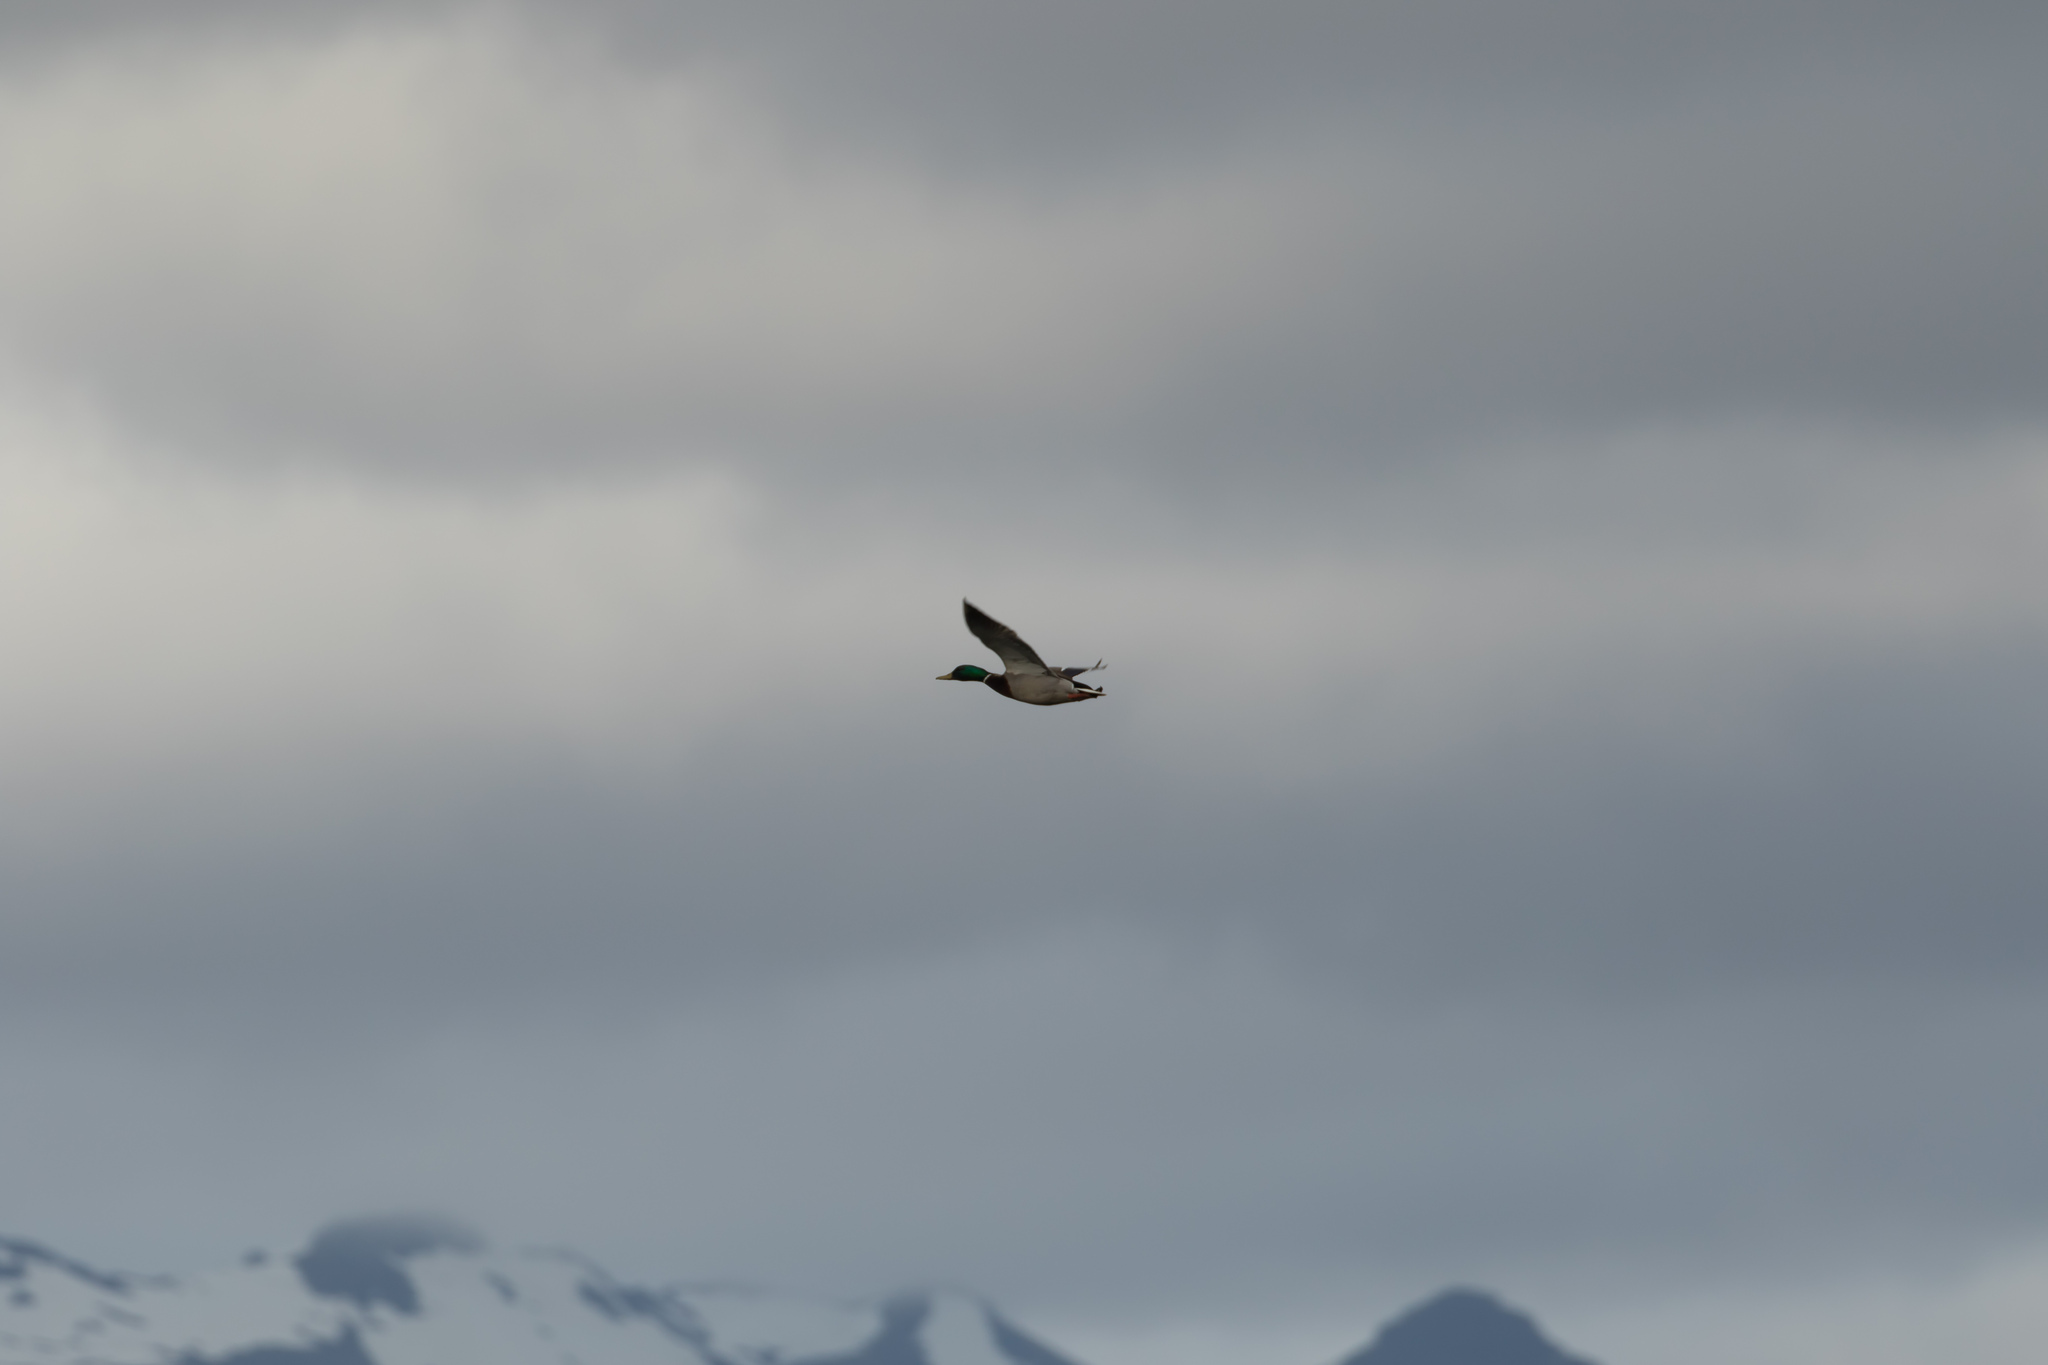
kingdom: Animalia
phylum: Chordata
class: Aves
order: Anseriformes
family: Anatidae
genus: Anas
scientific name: Anas platyrhynchos
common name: Mallard
